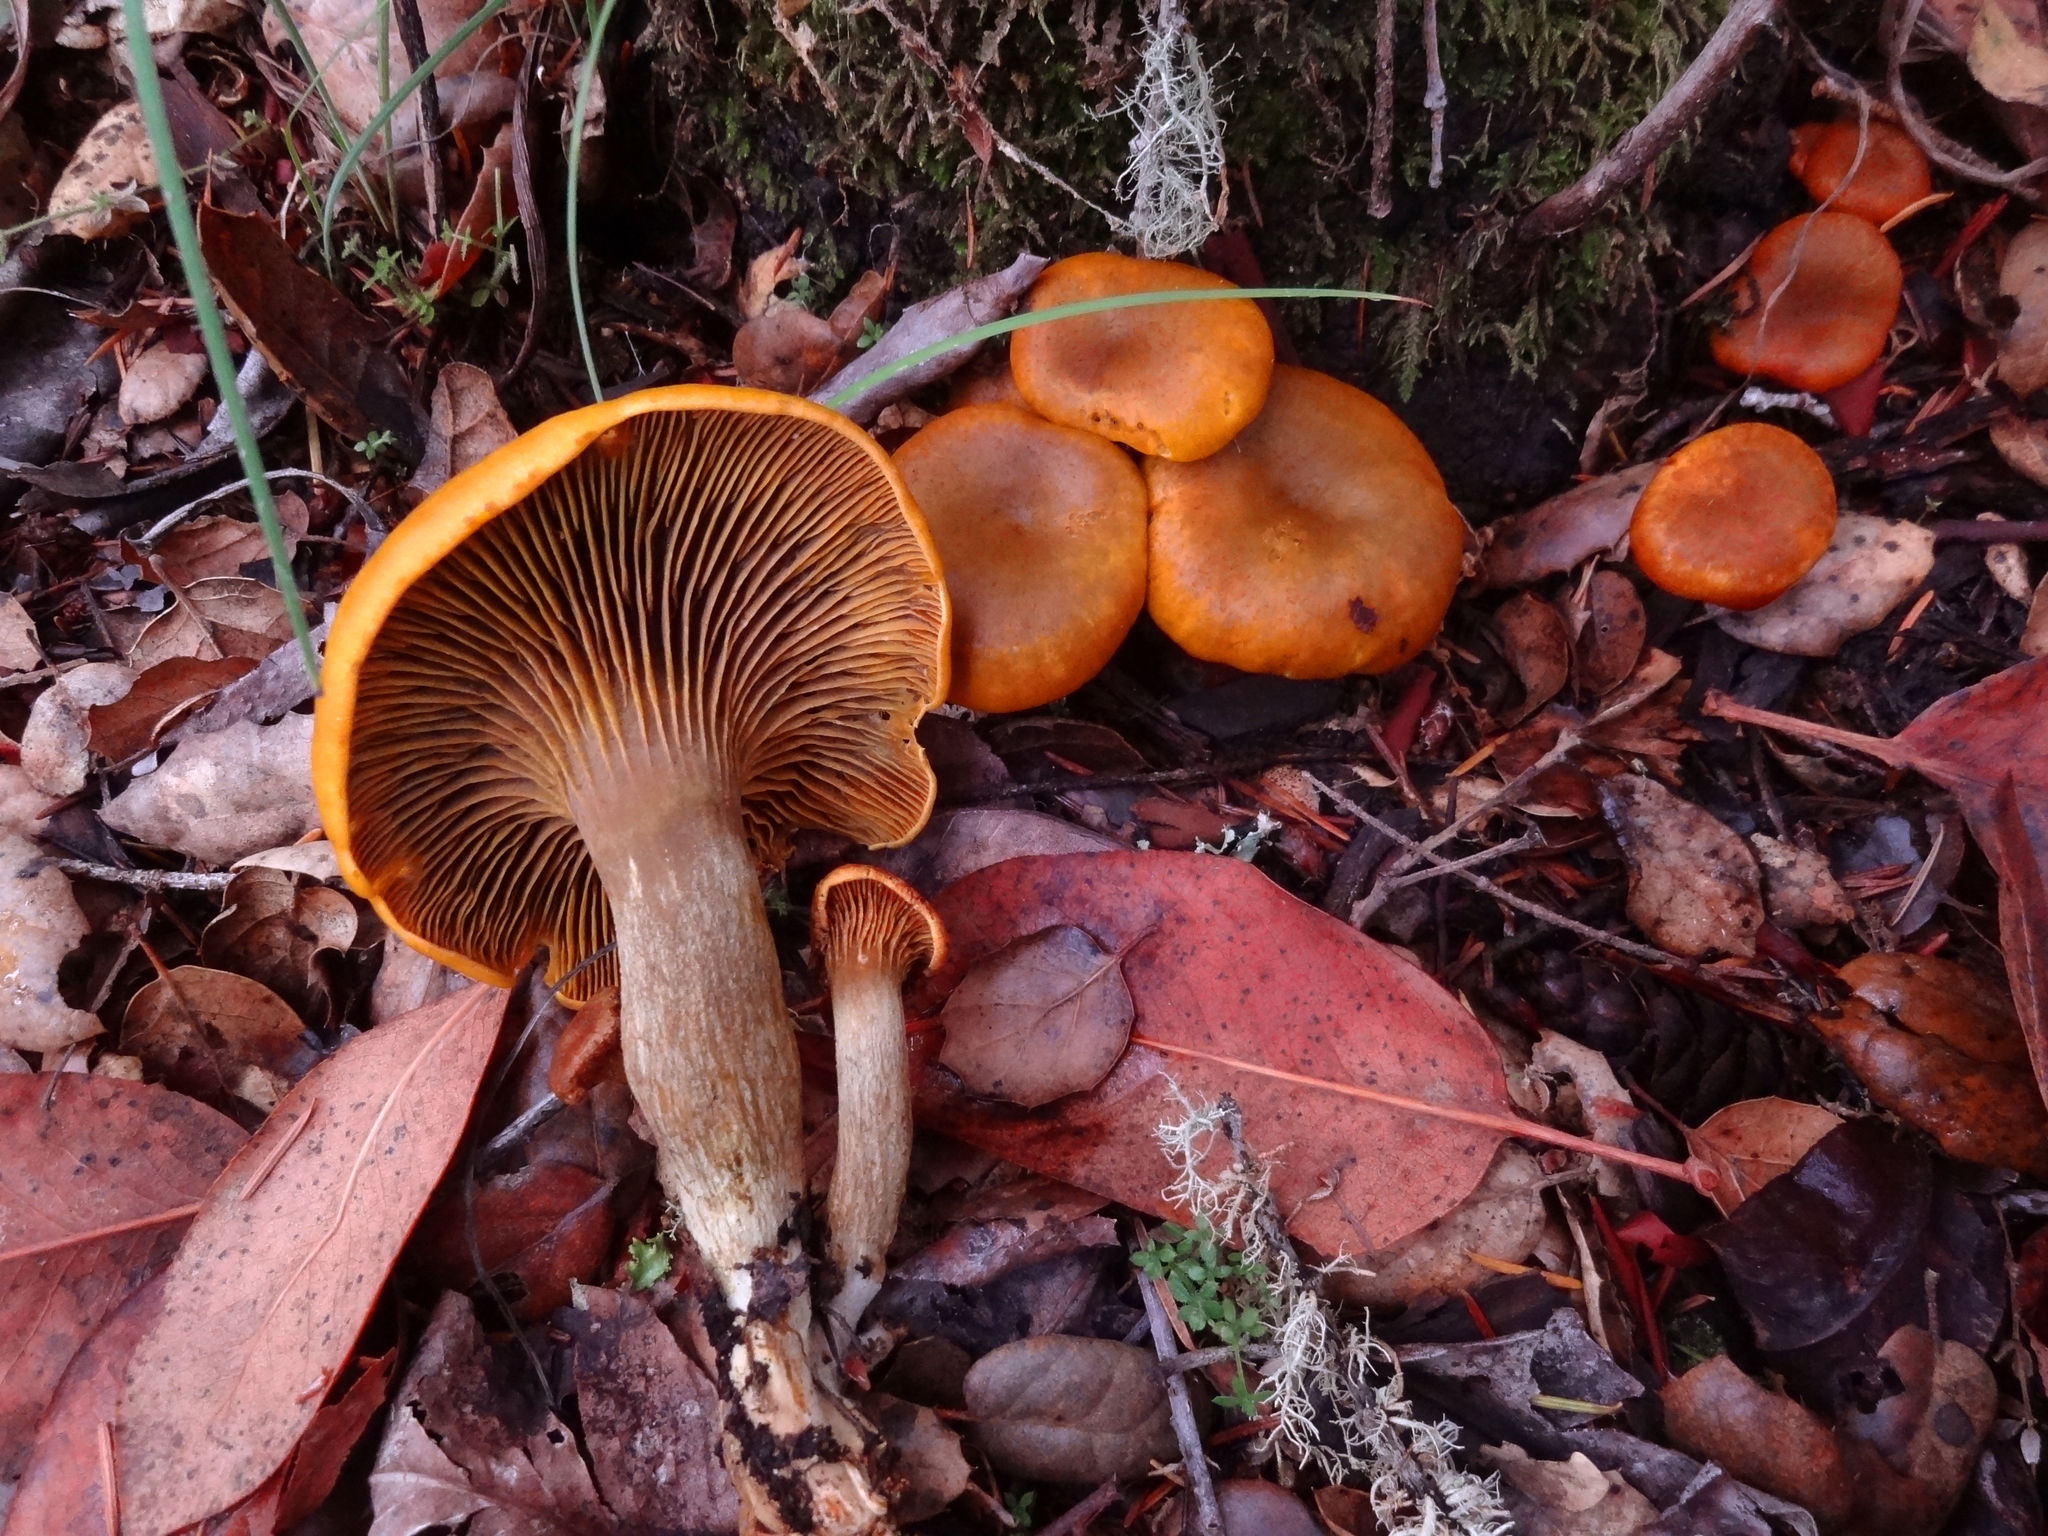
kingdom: Fungi
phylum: Basidiomycota
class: Agaricomycetes
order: Agaricales
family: Omphalotaceae
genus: Omphalotus
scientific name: Omphalotus olivascens
